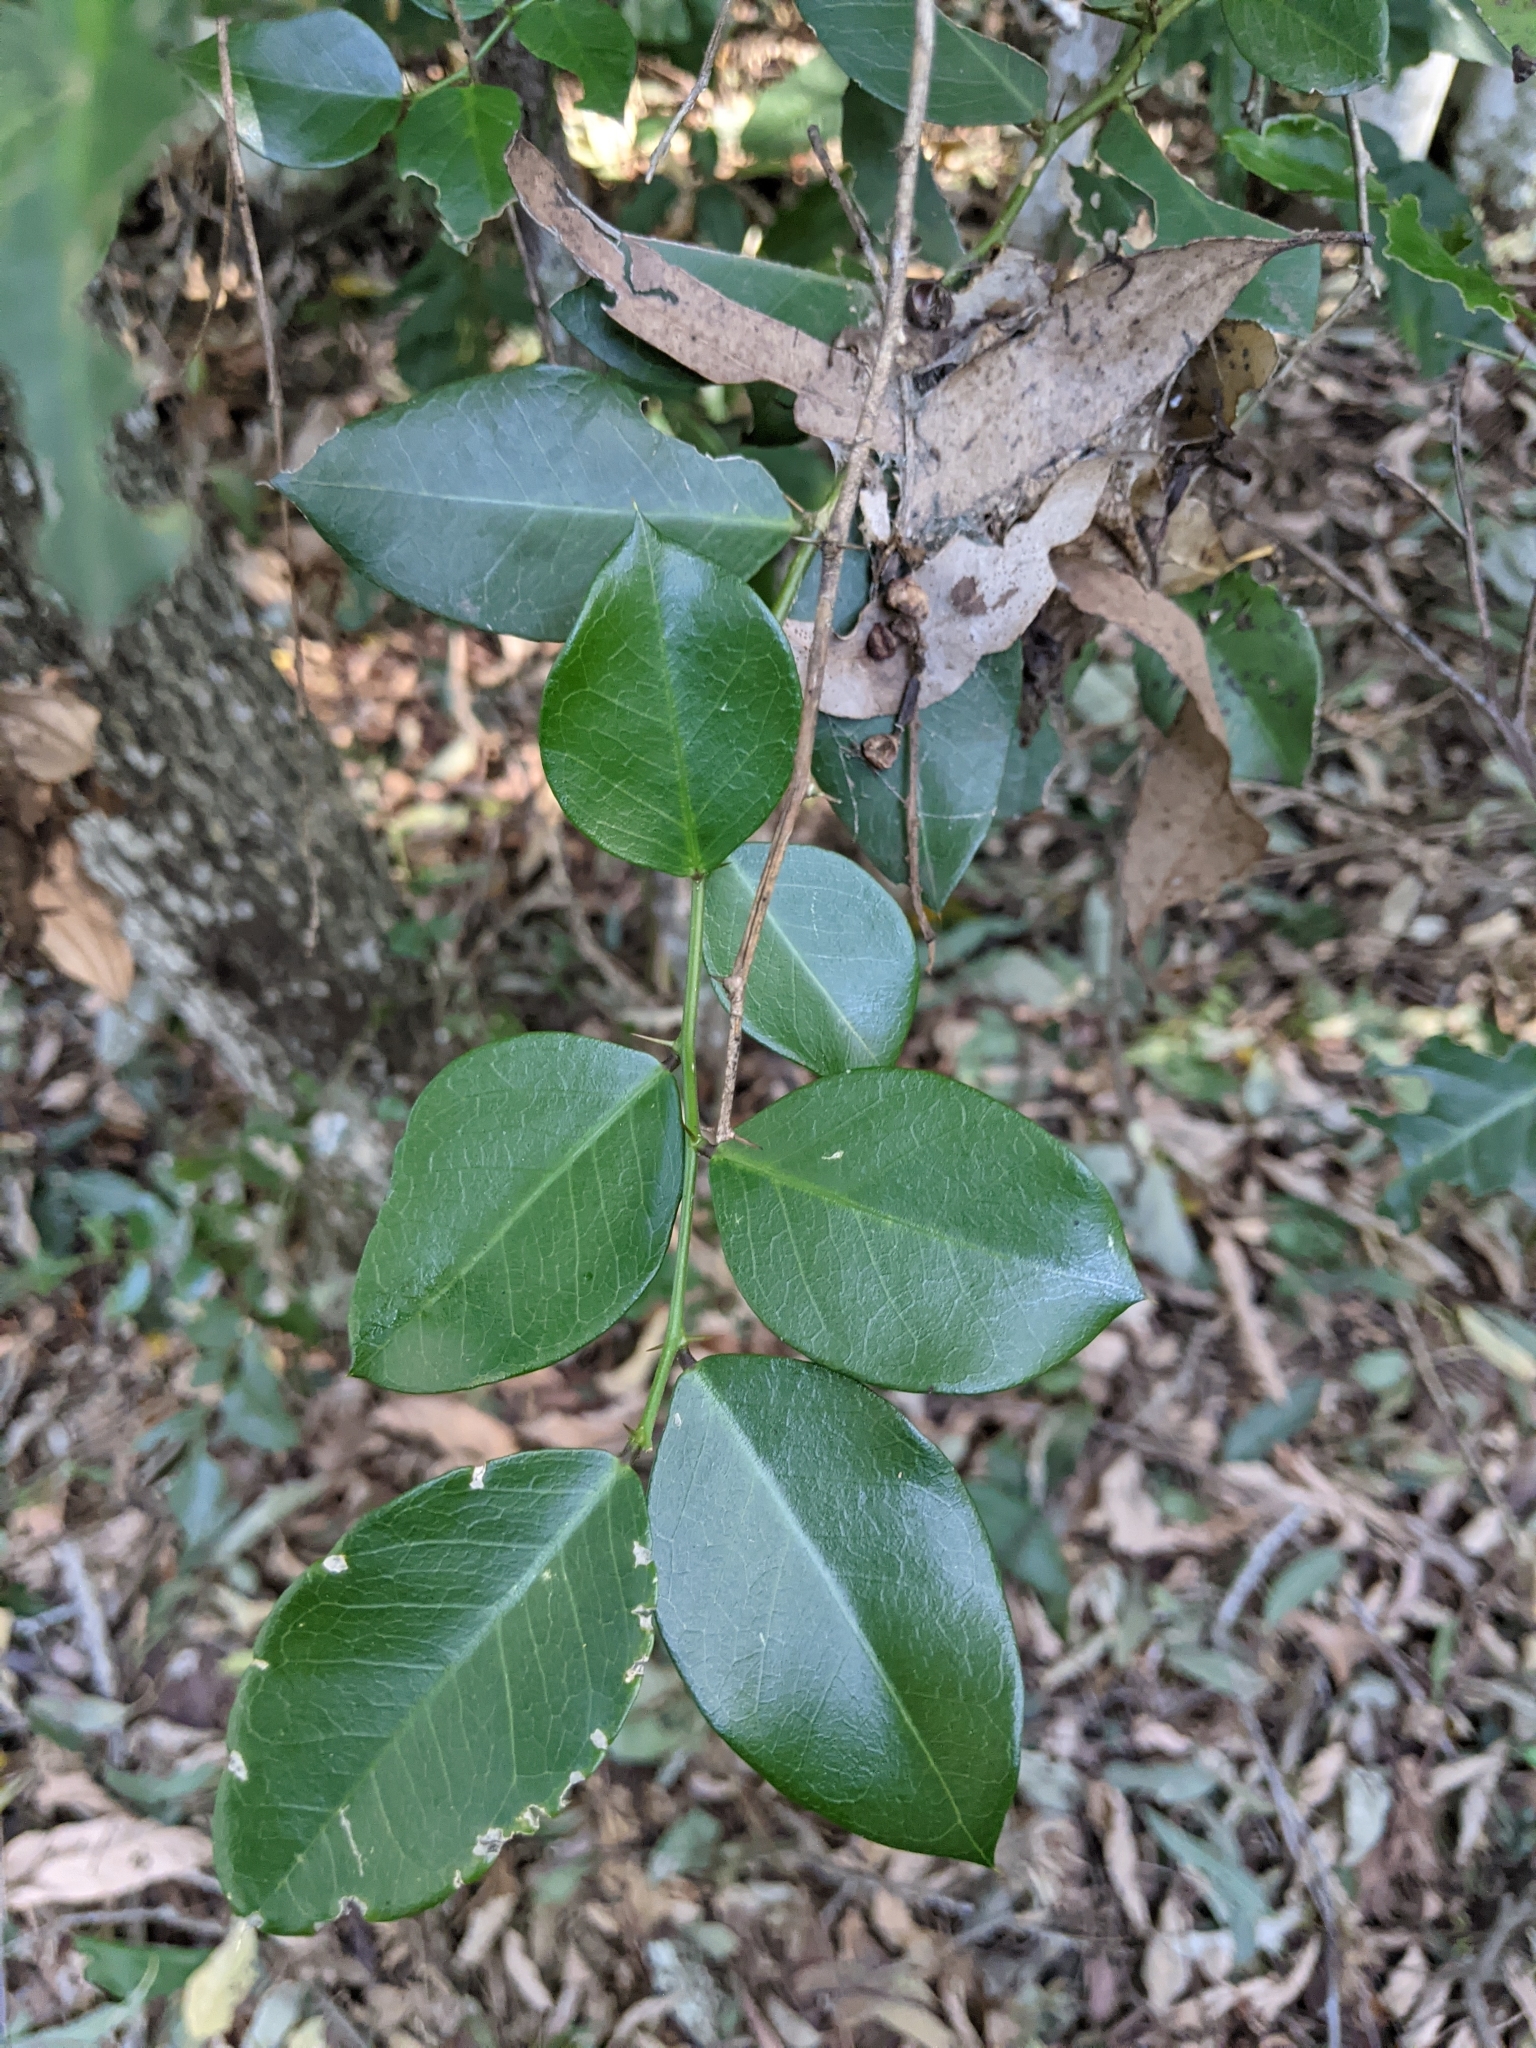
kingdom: Plantae
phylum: Tracheophyta
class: Magnoliopsida
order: Brassicales
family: Capparaceae
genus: Capparis
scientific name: Capparis arborea
